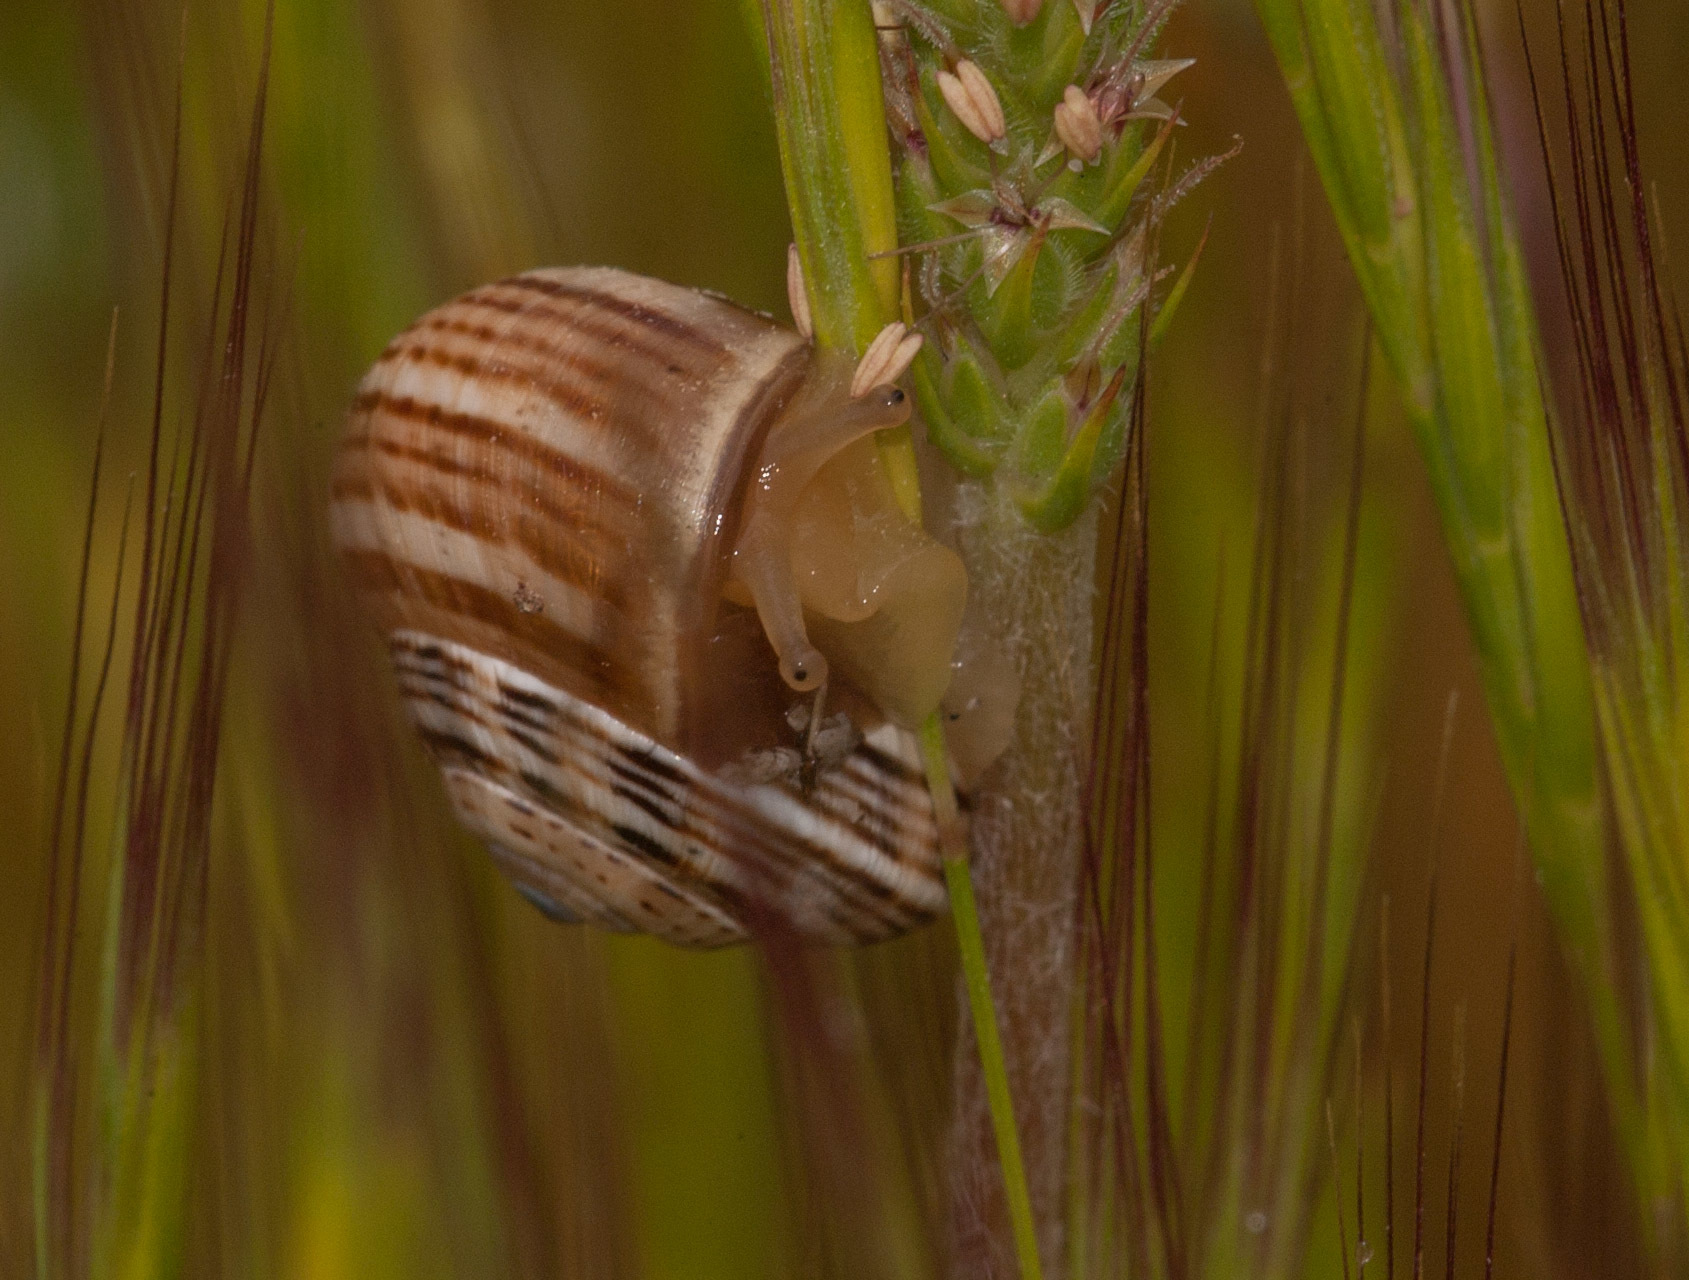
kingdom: Animalia
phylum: Mollusca
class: Gastropoda
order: Stylommatophora
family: Helicidae
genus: Theba
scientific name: Theba pisana
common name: White snail
